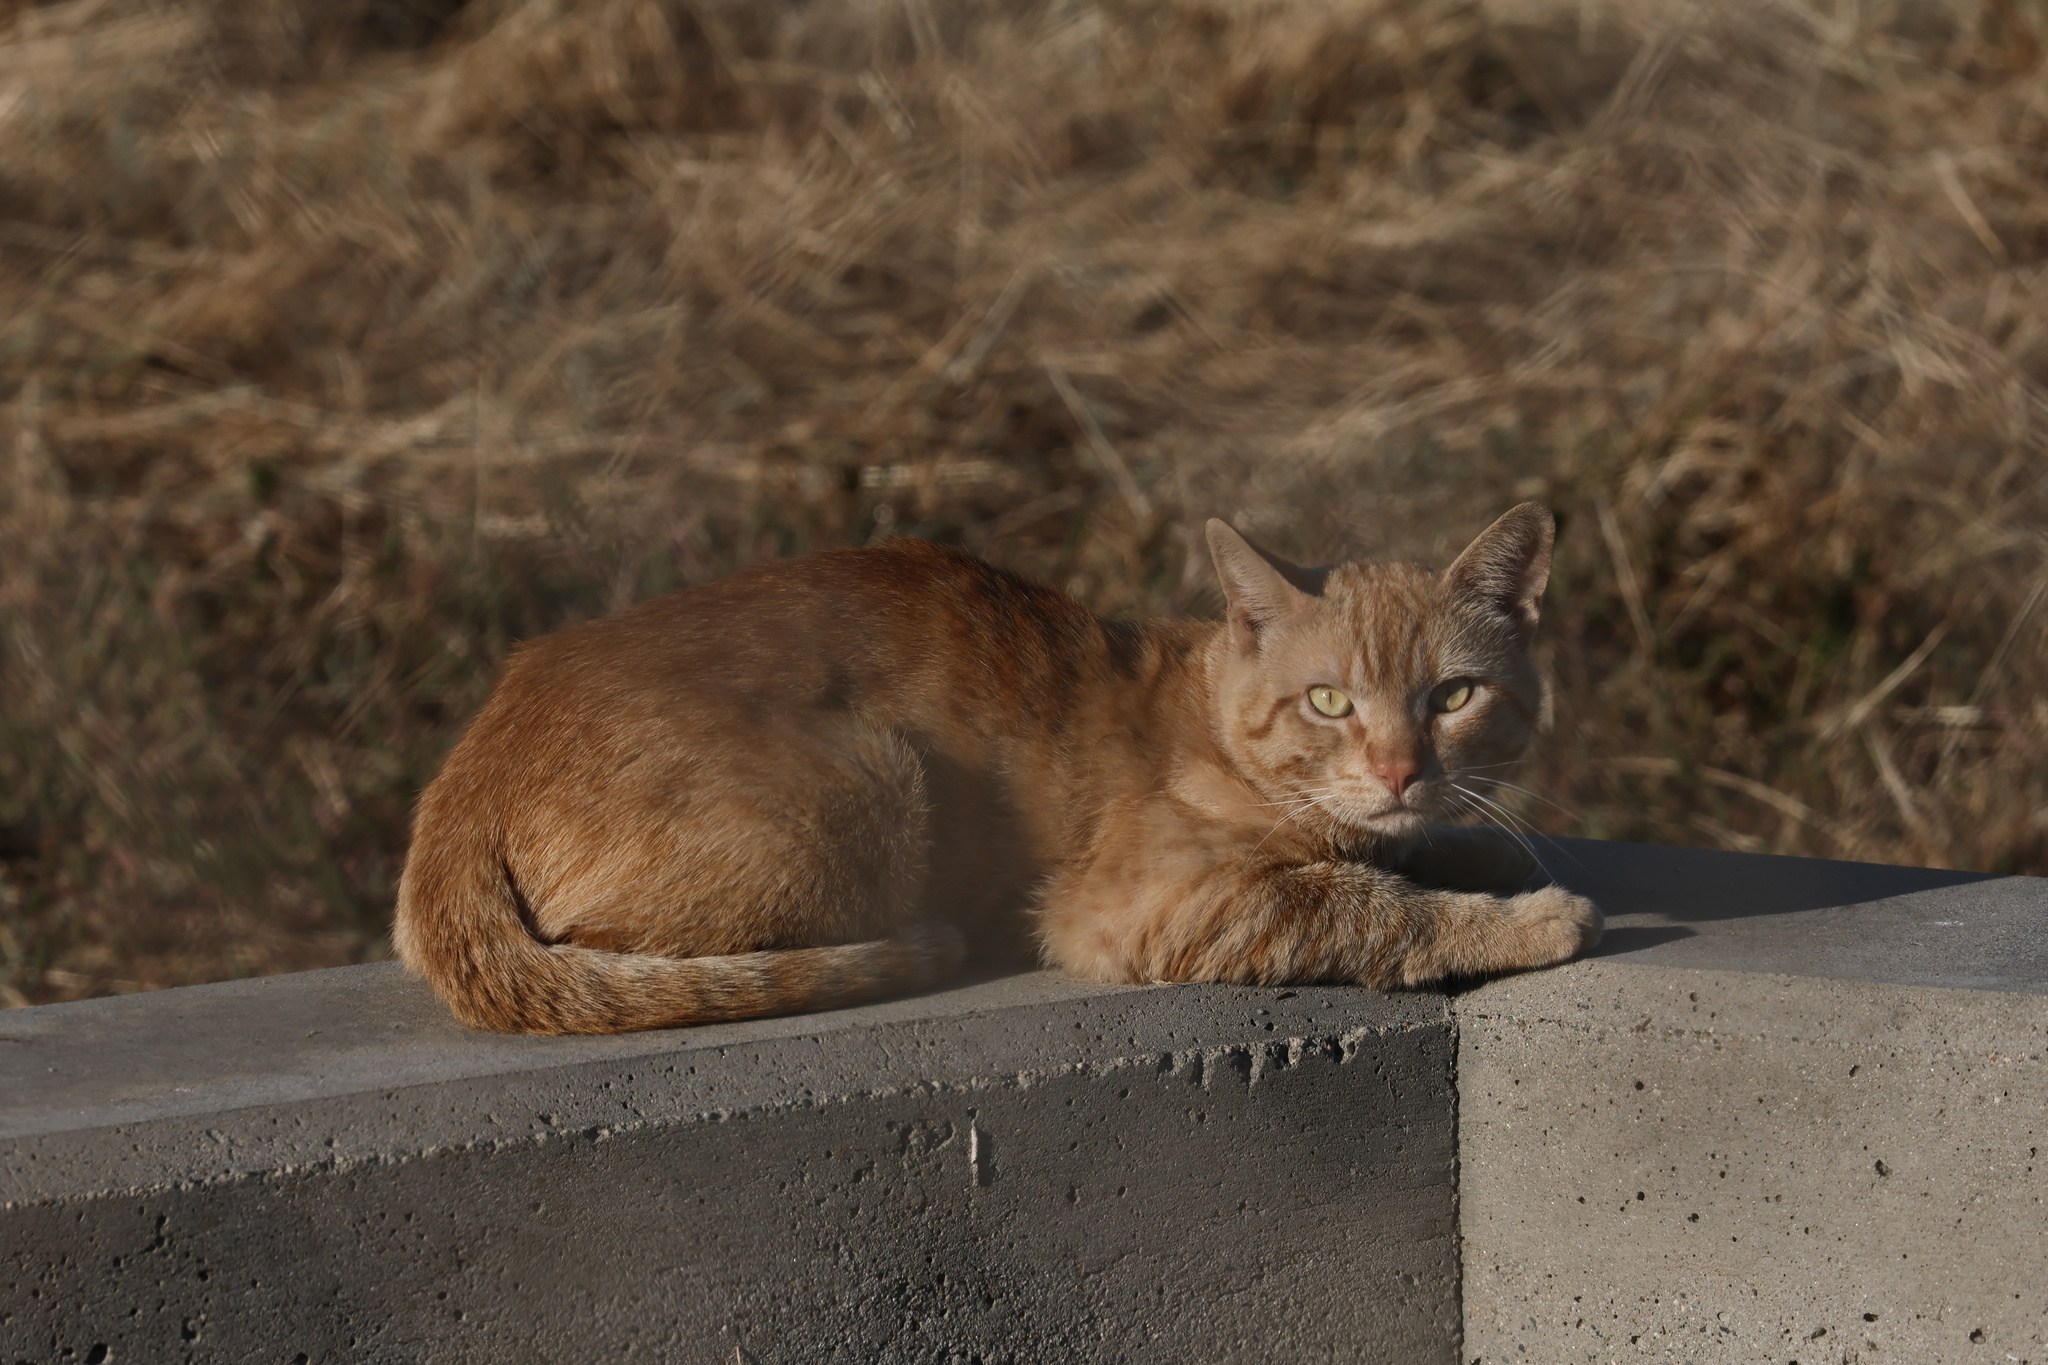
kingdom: Animalia
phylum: Chordata
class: Mammalia
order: Carnivora
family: Felidae
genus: Felis
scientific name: Felis catus
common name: Domestic cat
